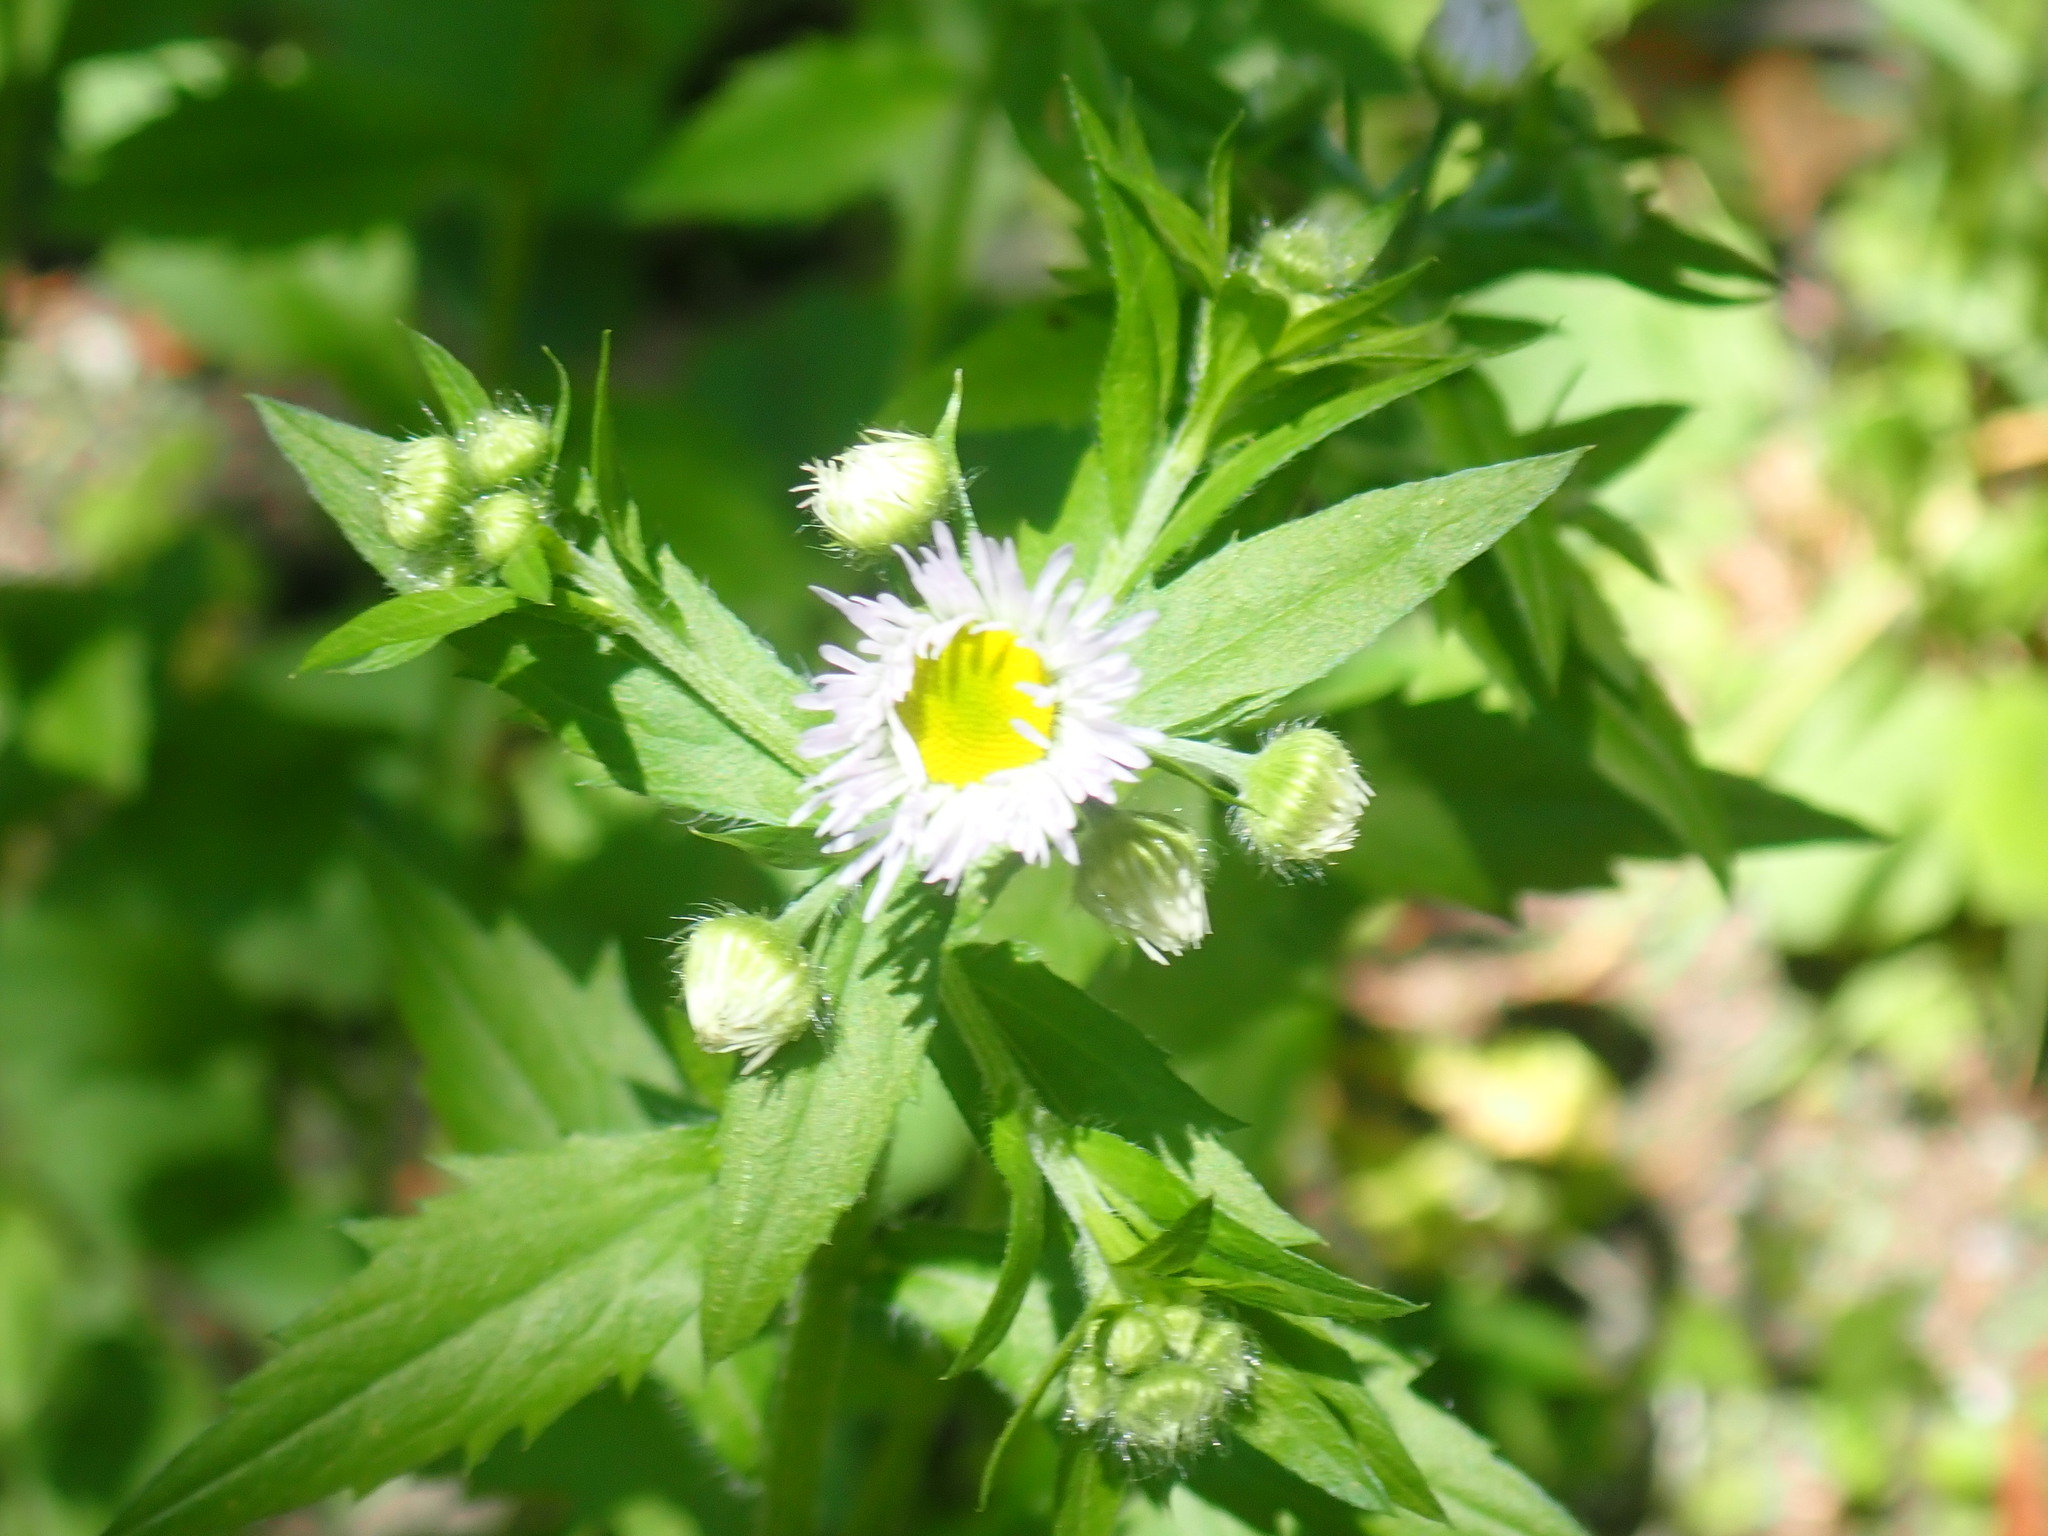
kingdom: Plantae
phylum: Tracheophyta
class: Magnoliopsida
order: Asterales
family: Asteraceae
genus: Erigeron
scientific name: Erigeron annuus
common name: Tall fleabane
